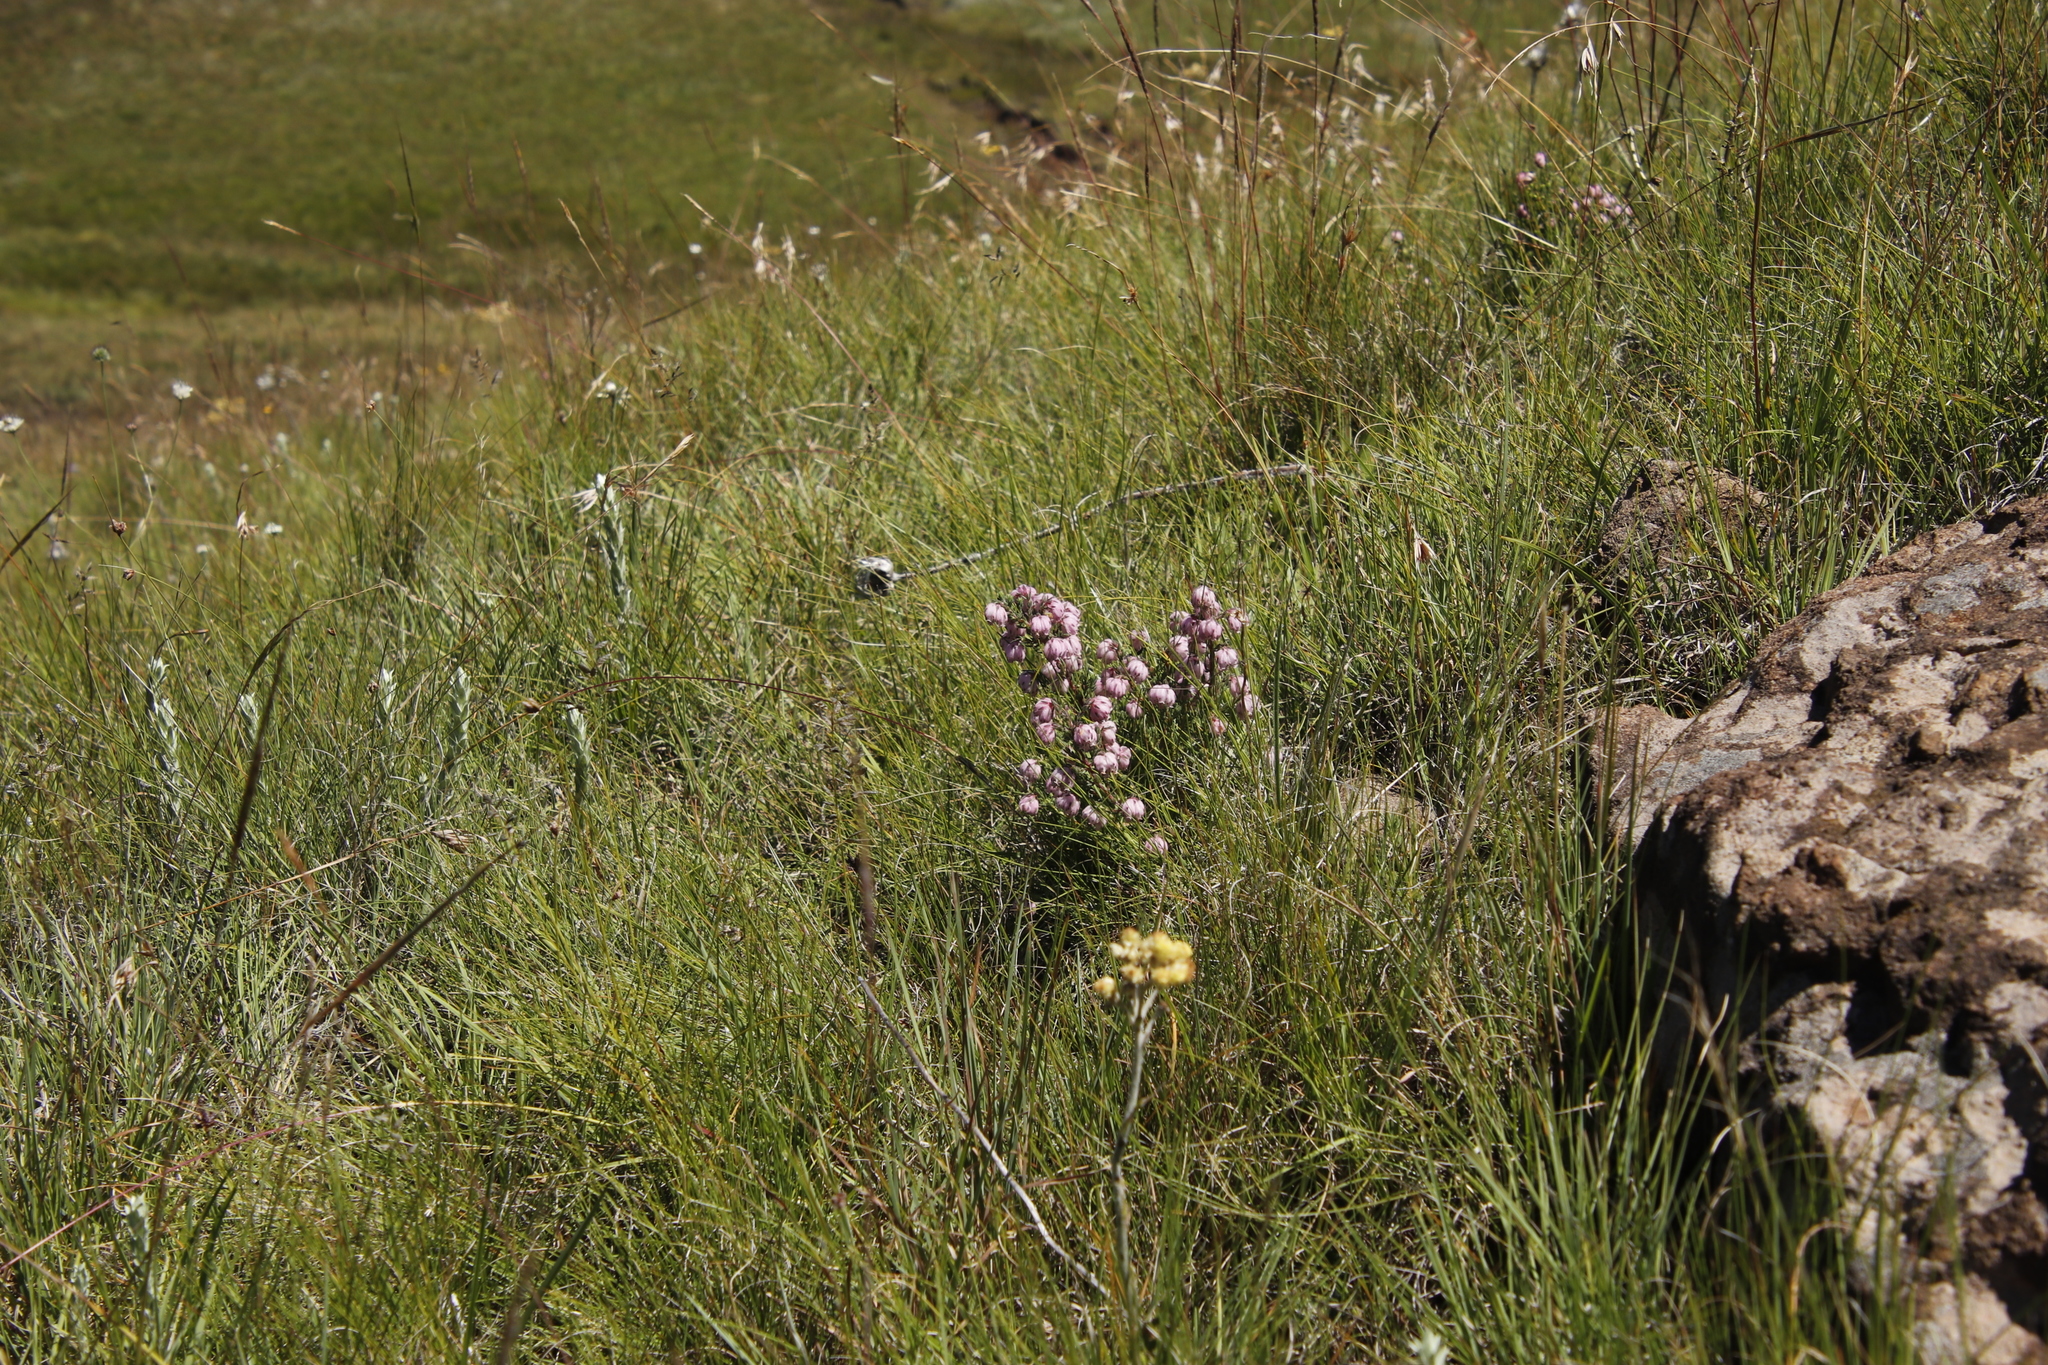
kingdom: Plantae
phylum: Tracheophyta
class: Magnoliopsida
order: Ericales
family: Ericaceae
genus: Erica
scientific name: Erica cooperi
